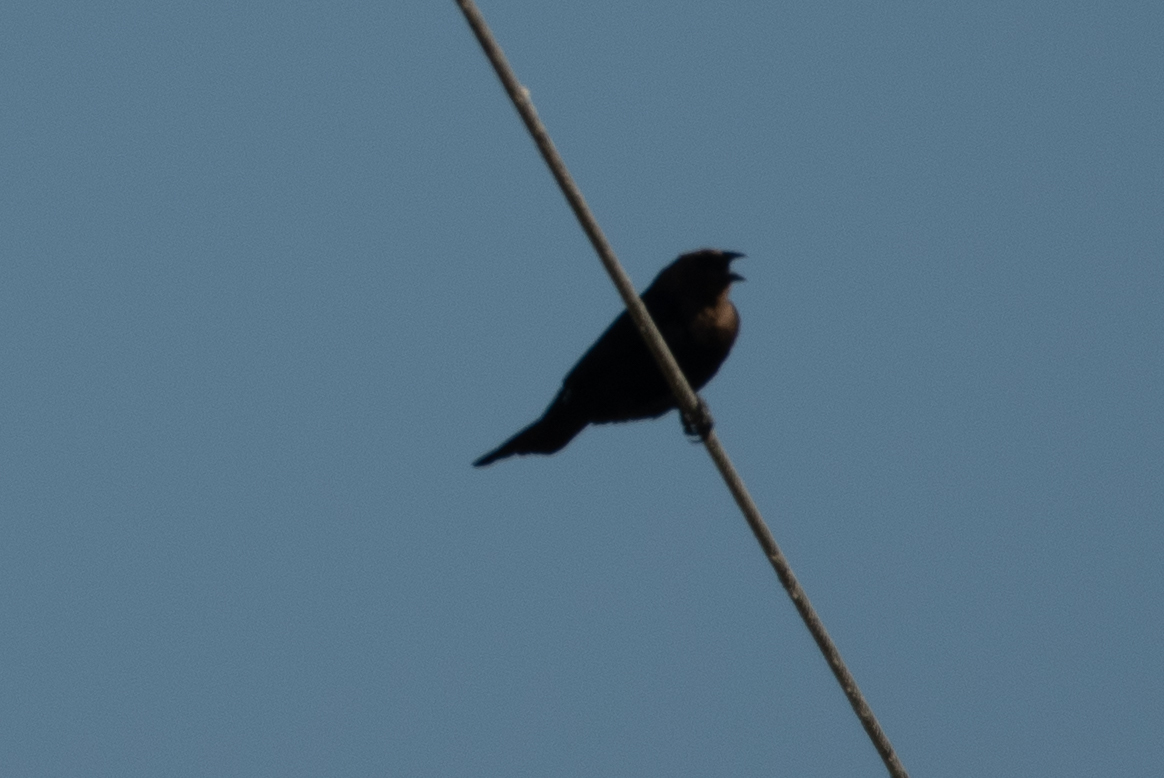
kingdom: Animalia
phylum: Chordata
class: Aves
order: Passeriformes
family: Icteridae
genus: Molothrus
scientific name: Molothrus ater
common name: Brown-headed cowbird
